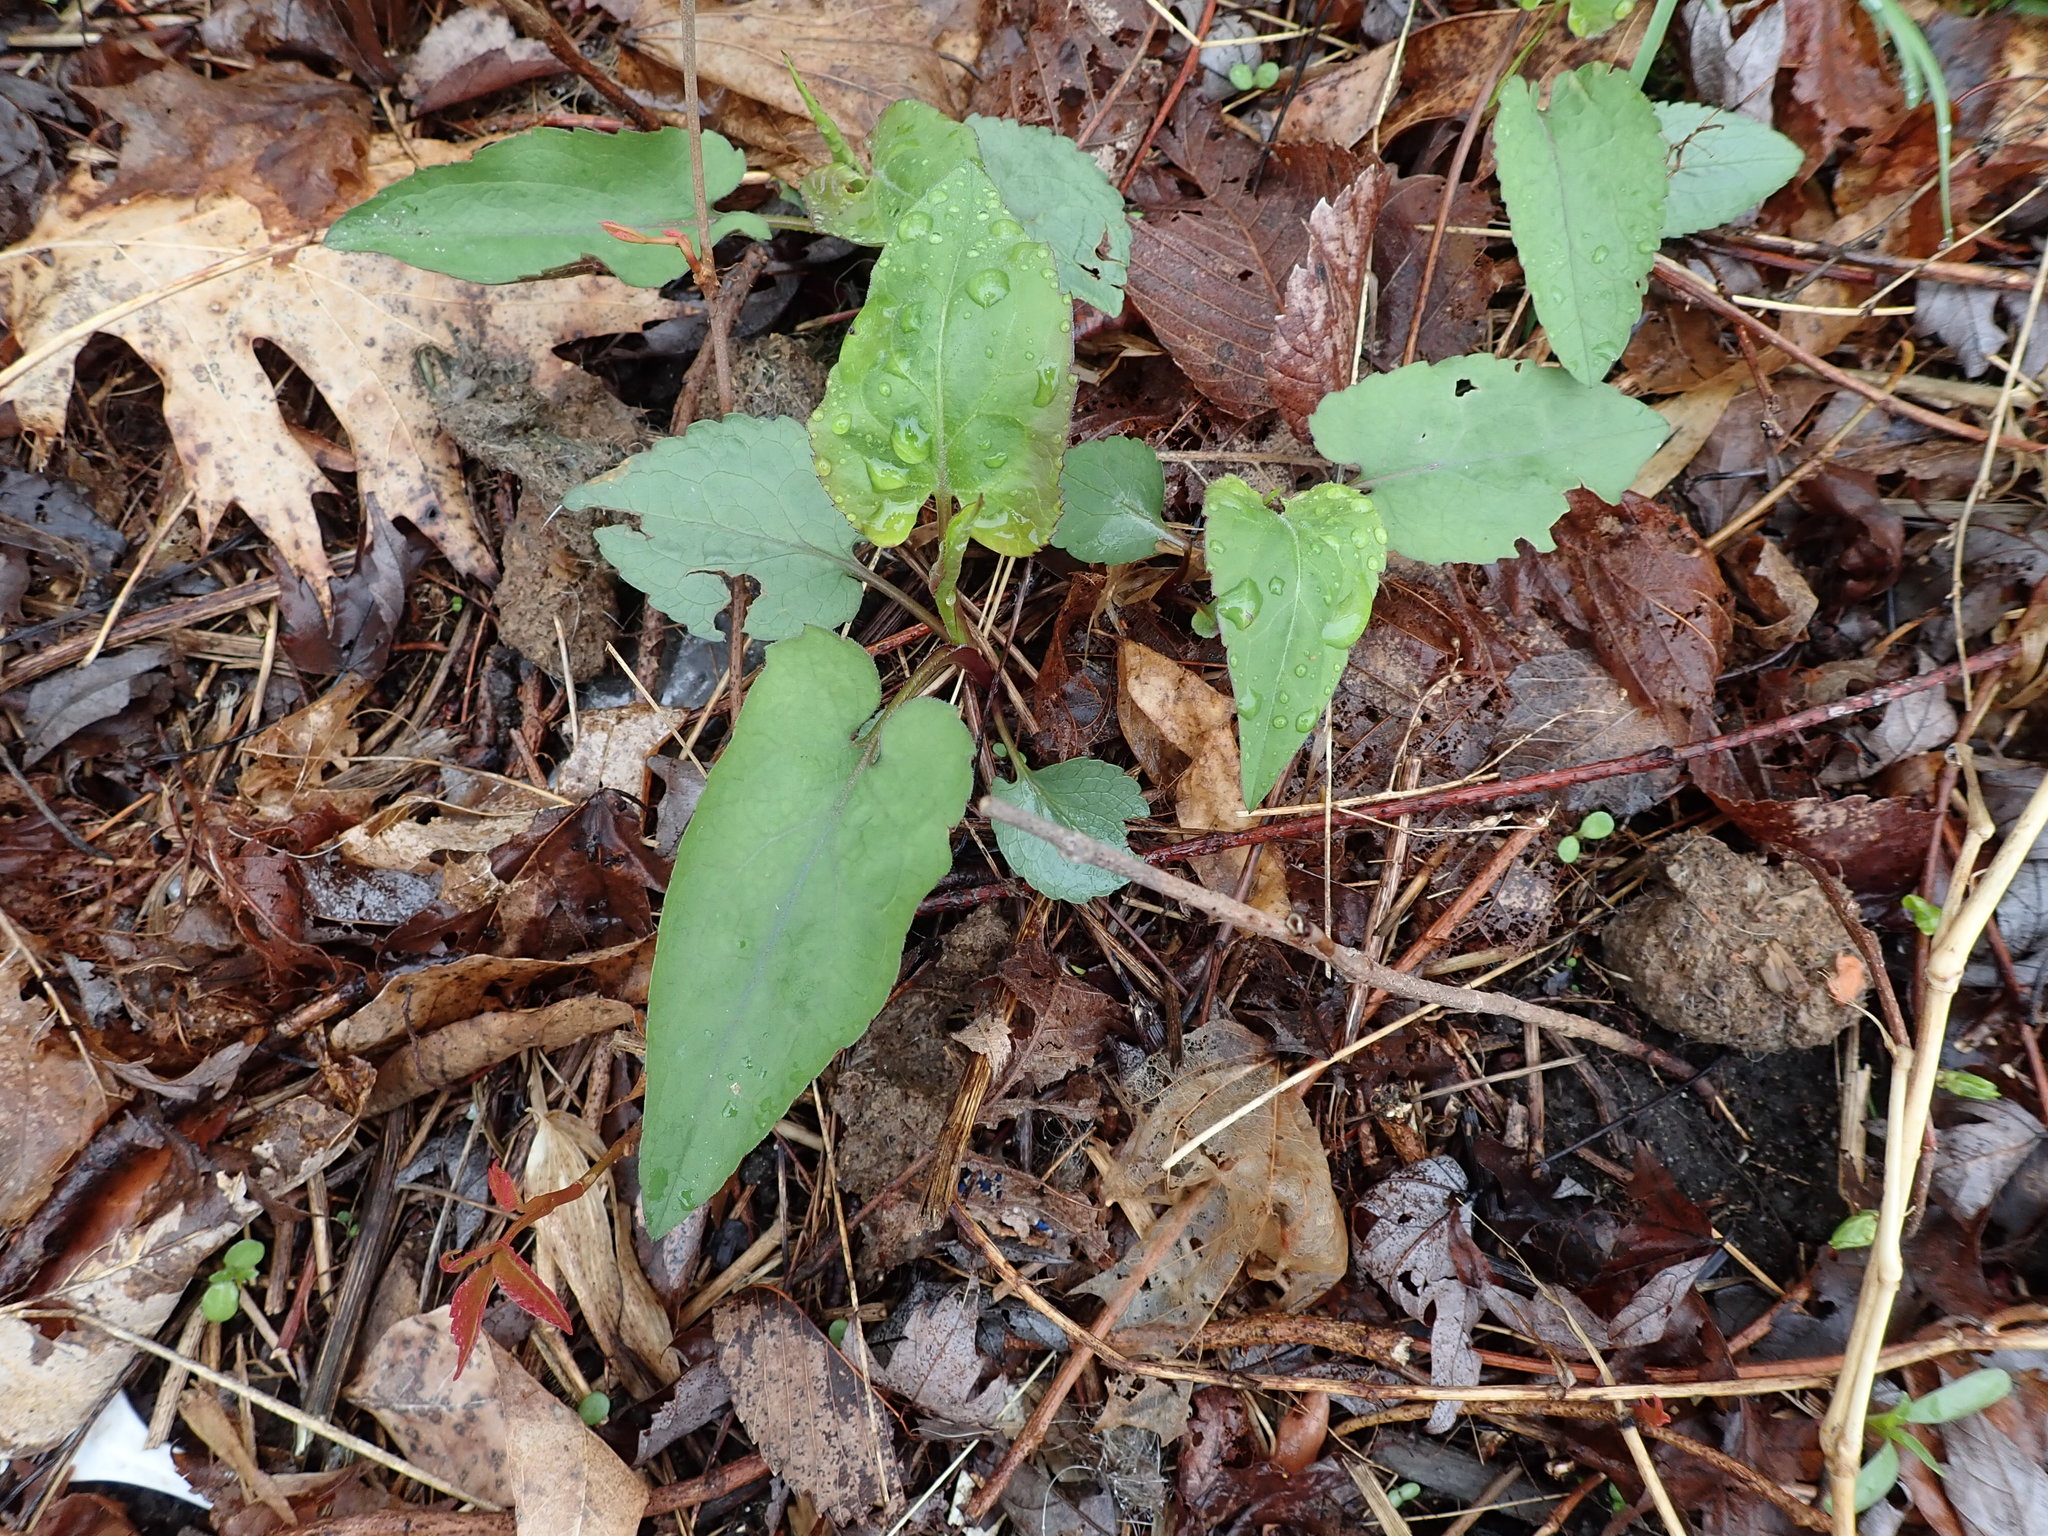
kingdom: Plantae
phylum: Tracheophyta
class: Magnoliopsida
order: Asterales
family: Asteraceae
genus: Eurybia
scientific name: Eurybia divaricata
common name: White wood aster
